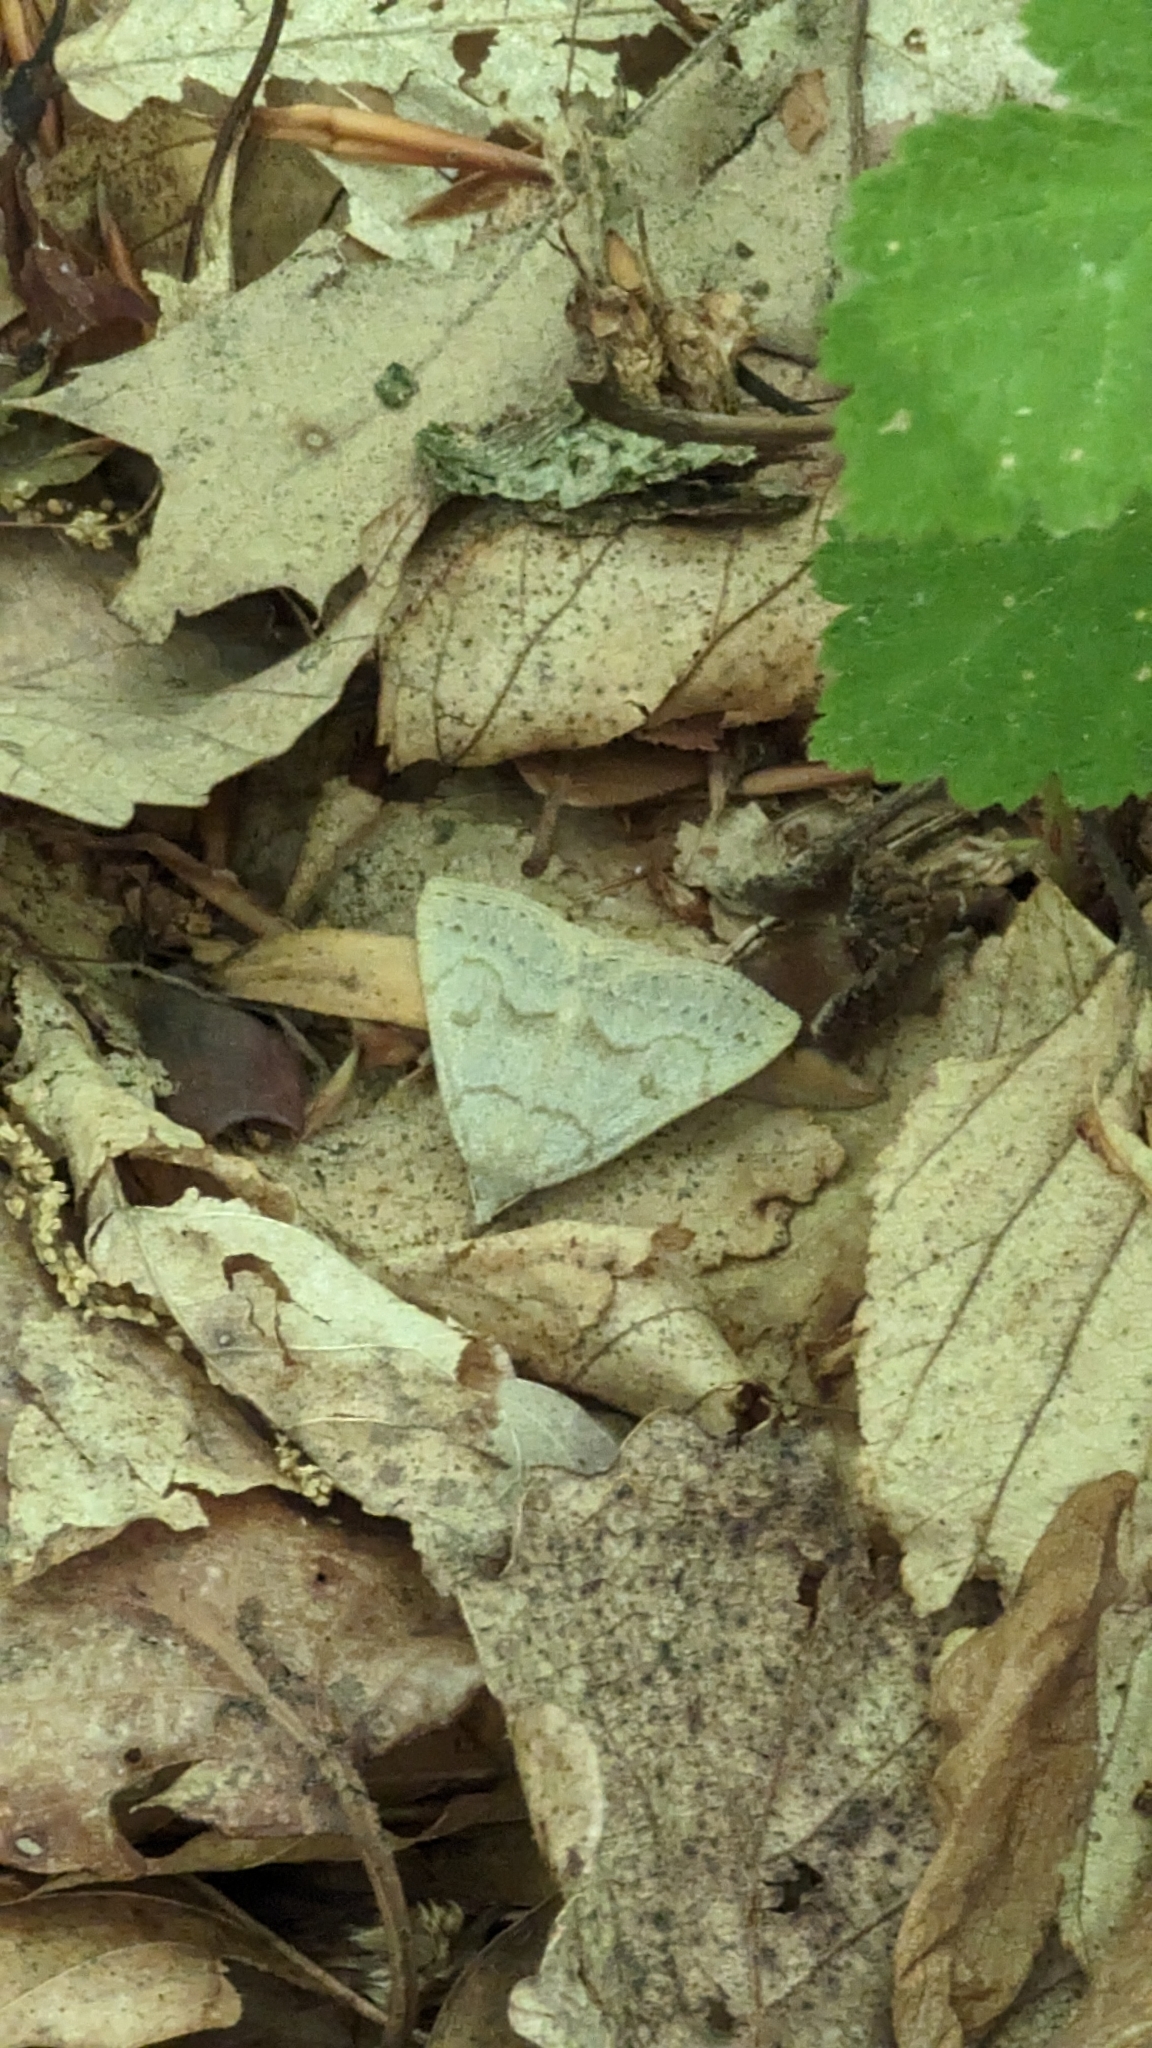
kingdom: Animalia
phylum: Arthropoda
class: Insecta
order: Lepidoptera
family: Erebidae
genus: Macrochilo
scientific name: Macrochilo morbidalis
